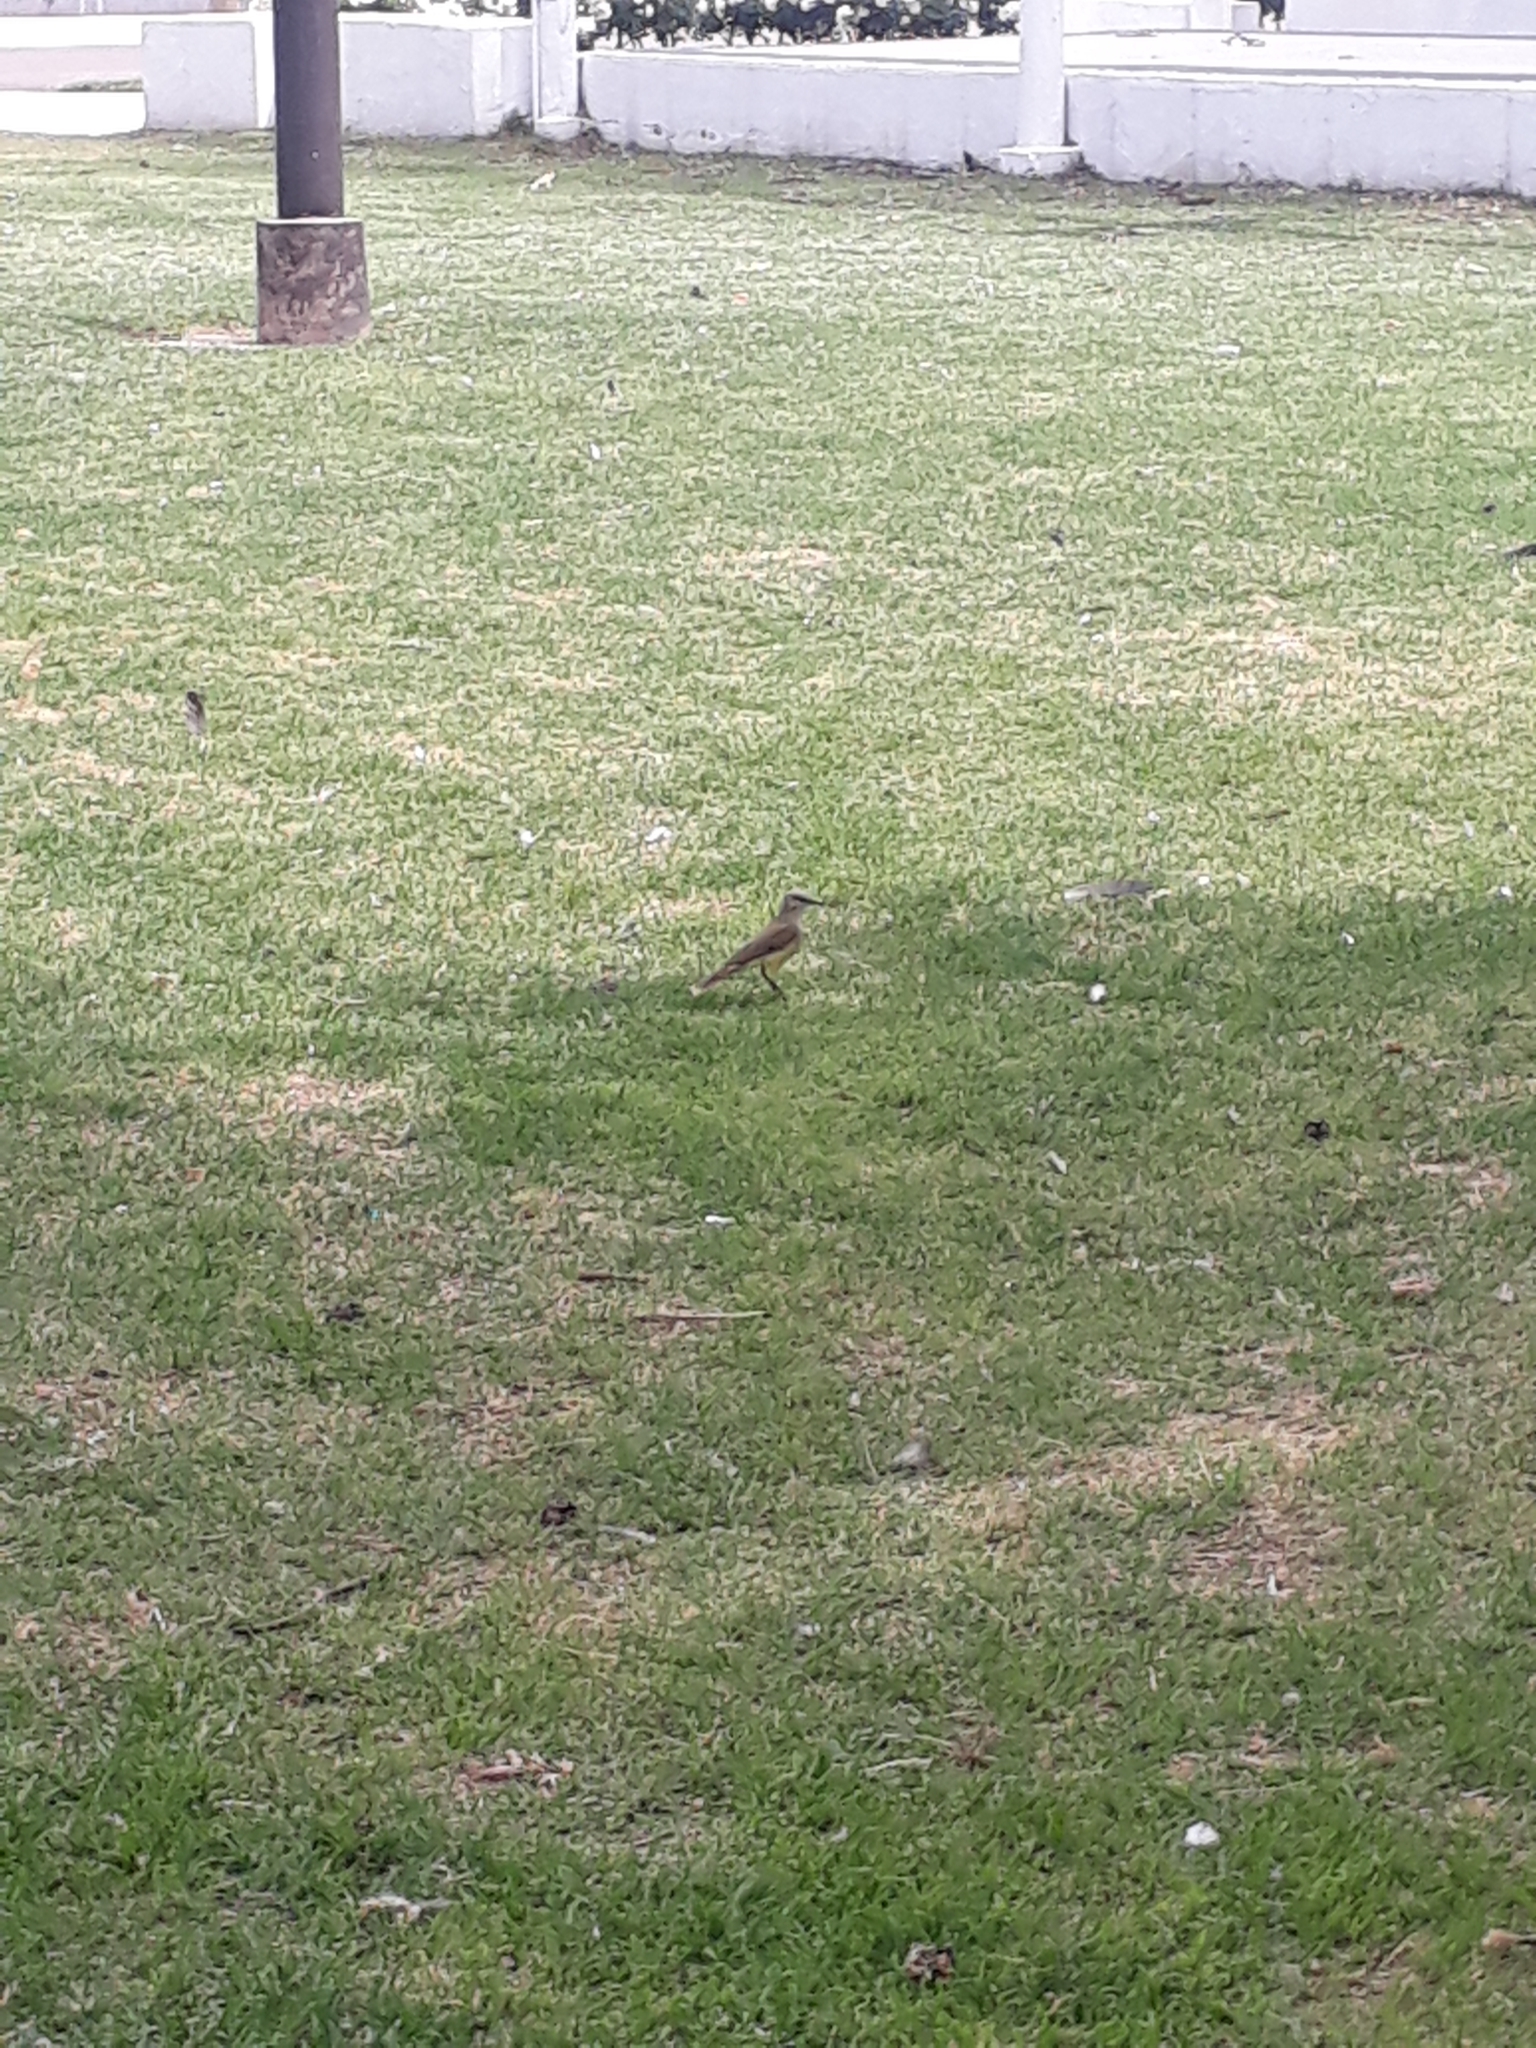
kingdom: Animalia
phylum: Chordata
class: Aves
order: Passeriformes
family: Tyrannidae
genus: Machetornis
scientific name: Machetornis rixosa
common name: Cattle tyrant
